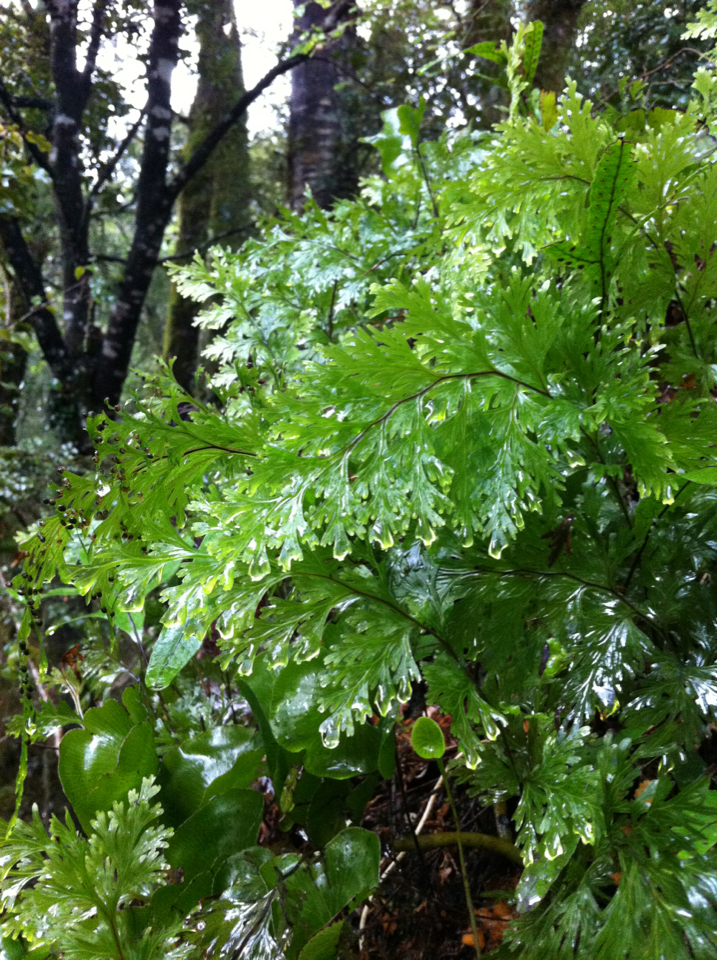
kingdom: Plantae
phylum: Tracheophyta
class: Polypodiopsida
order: Hymenophyllales
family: Hymenophyllaceae
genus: Hymenophyllum
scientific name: Hymenophyllum dilatatum
